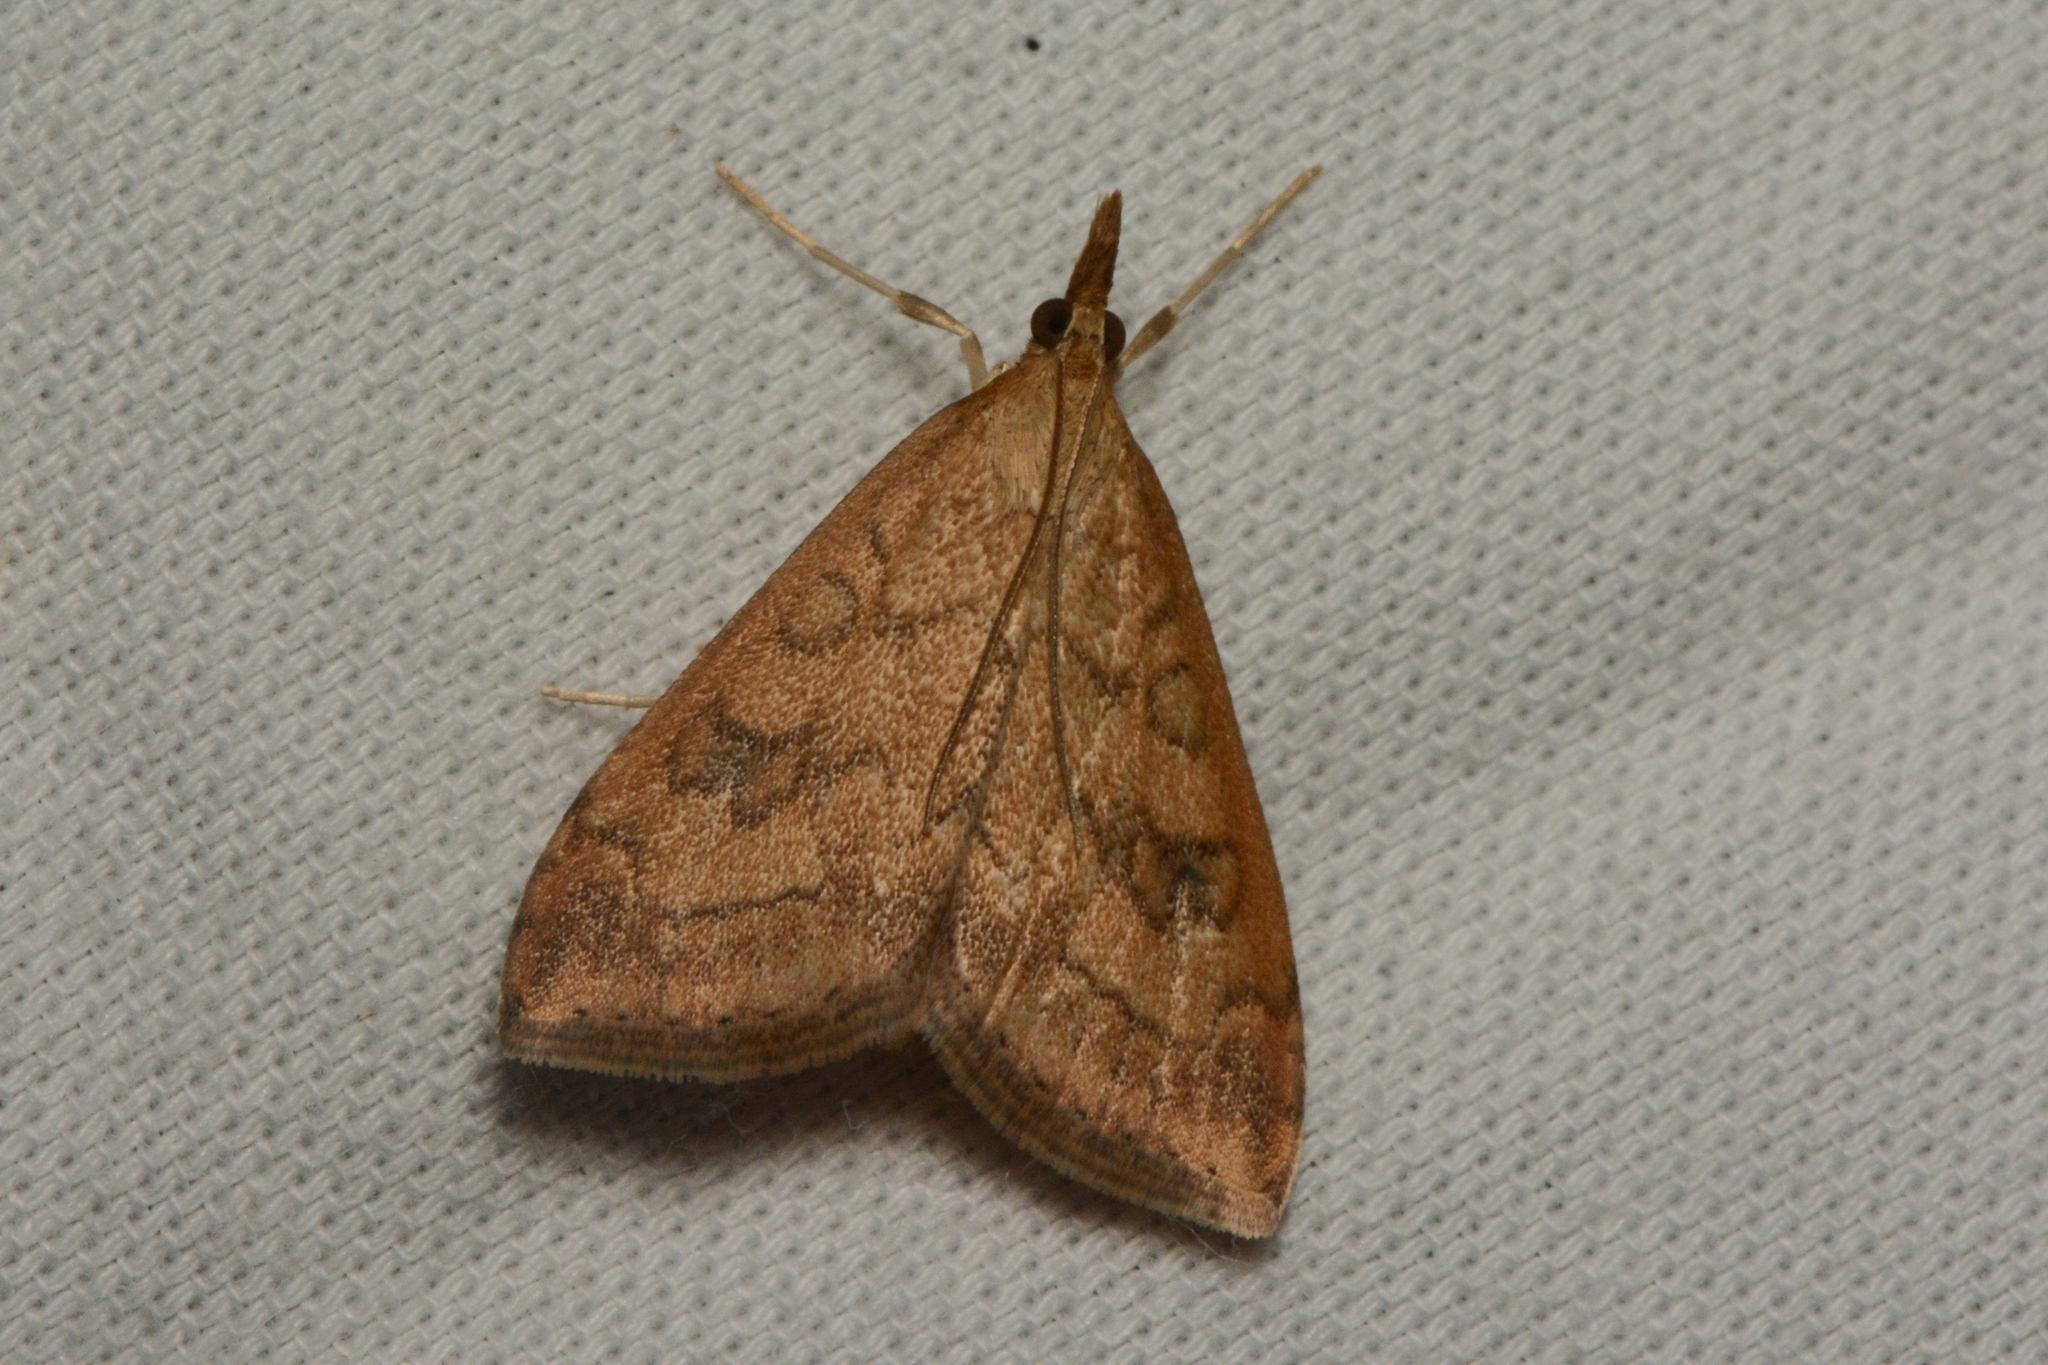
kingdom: Animalia
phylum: Arthropoda
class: Insecta
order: Lepidoptera
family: Crambidae
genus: Udea
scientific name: Udea profundalis
